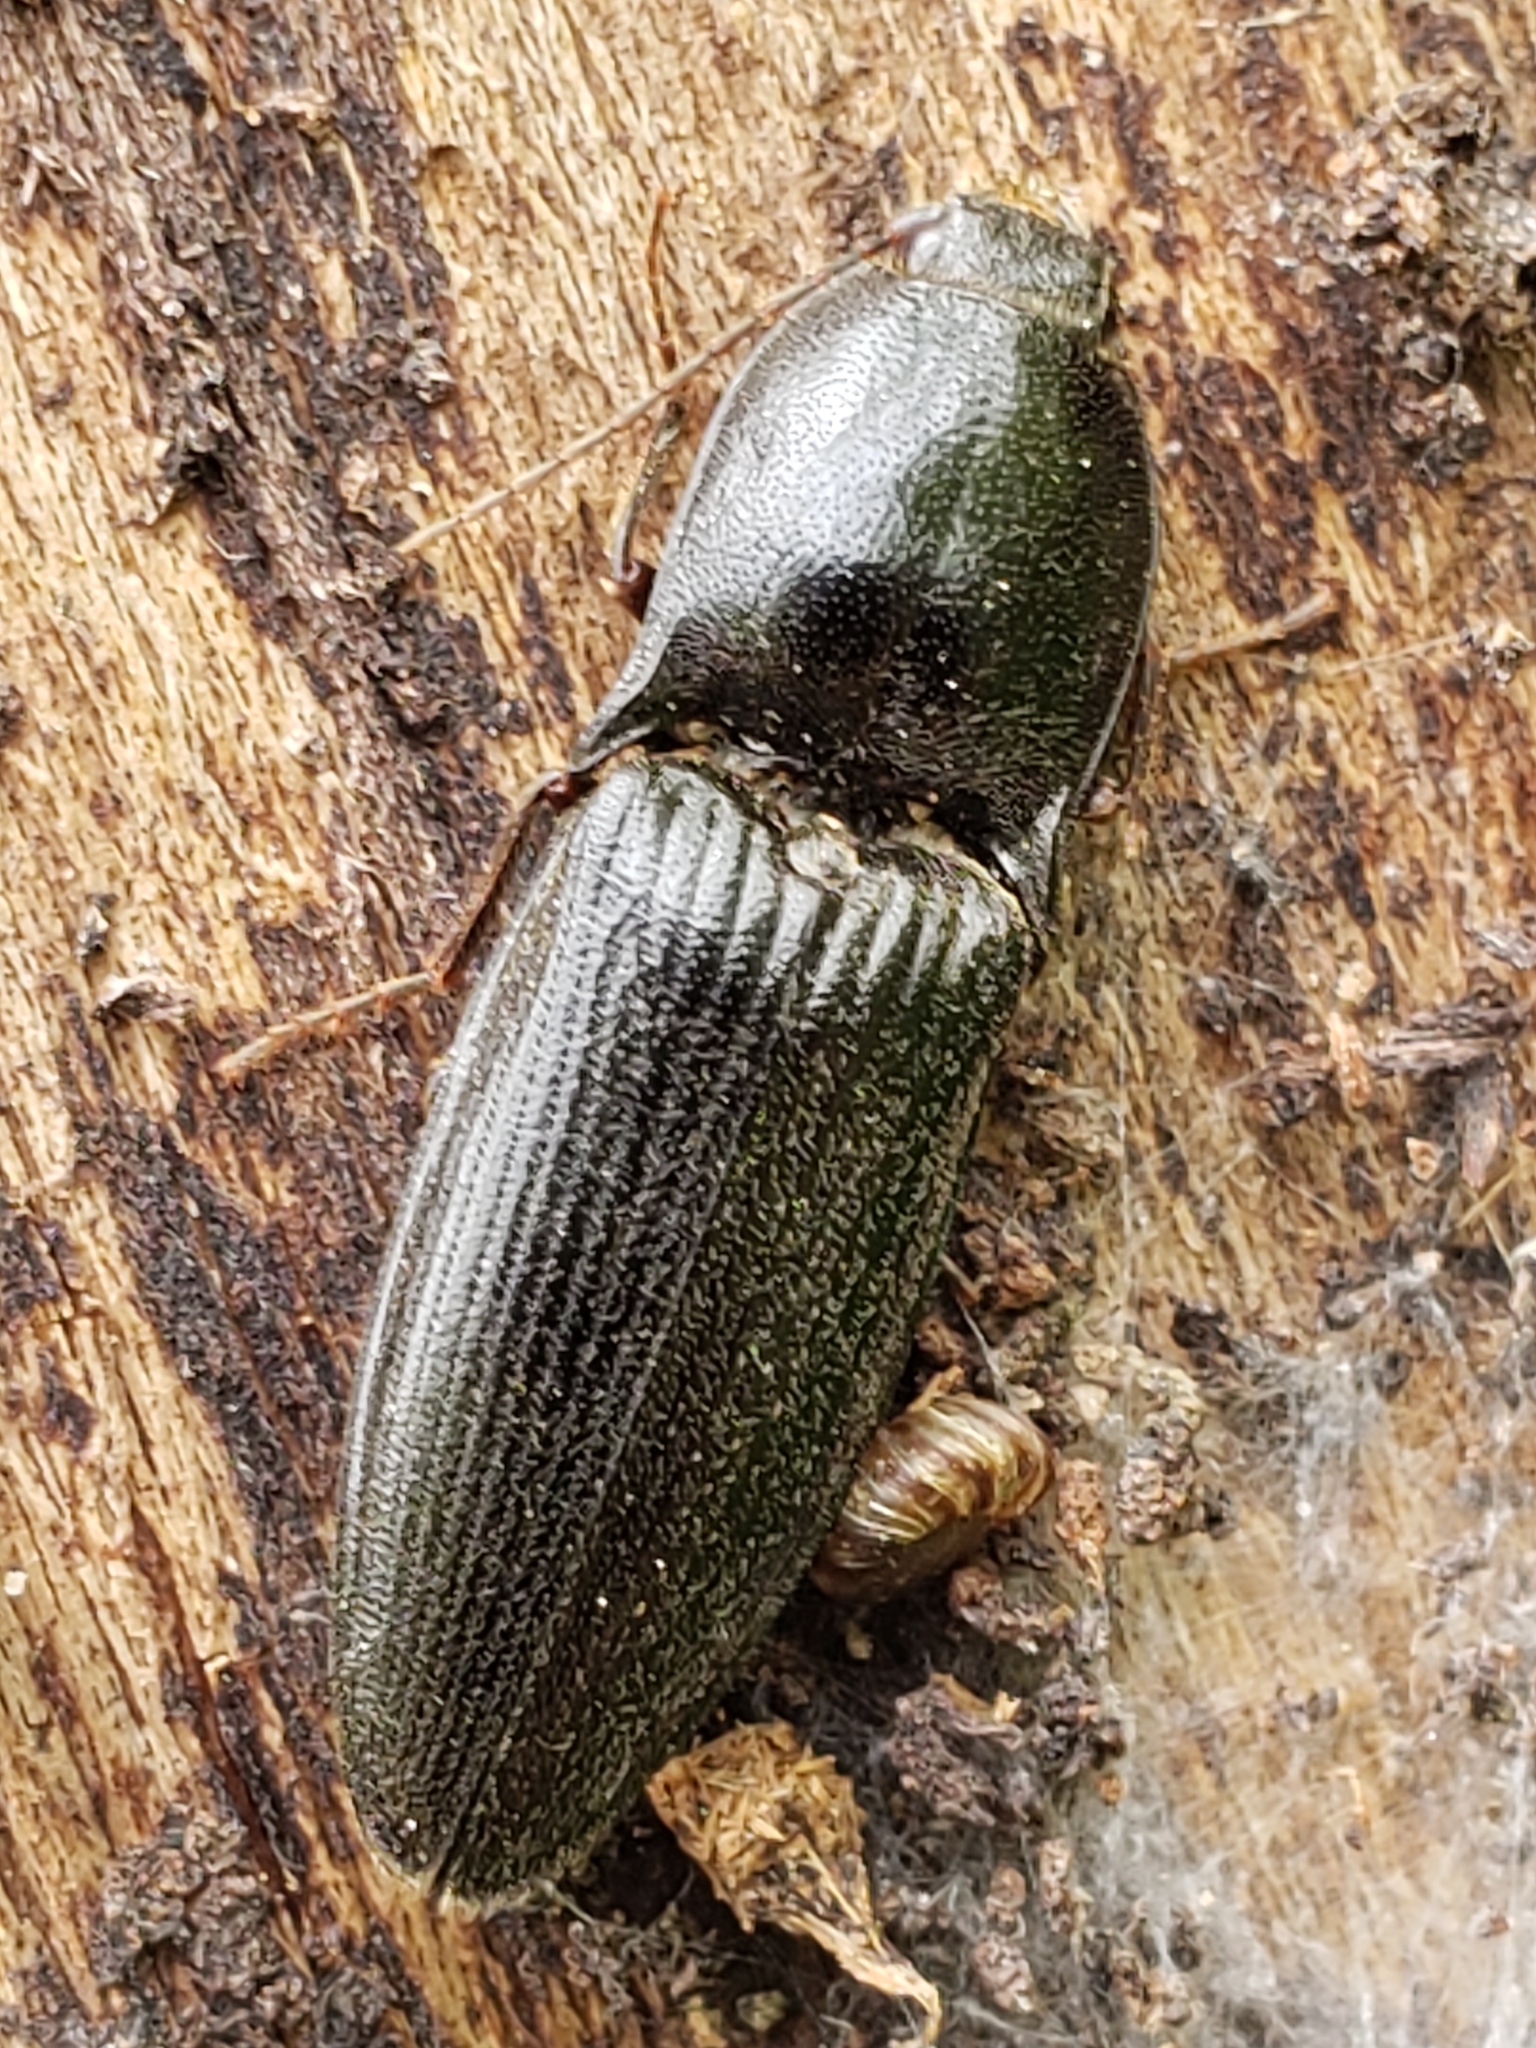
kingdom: Animalia
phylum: Arthropoda
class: Insecta
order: Coleoptera
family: Elateridae
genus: Neopristilophus
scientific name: Neopristilophus
